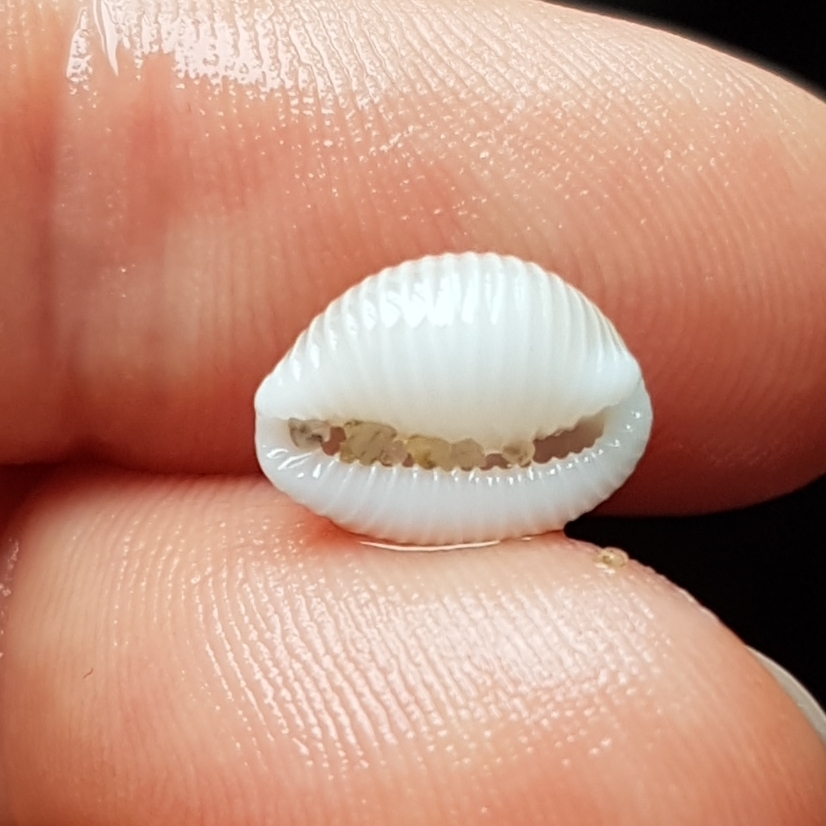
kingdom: Animalia
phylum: Mollusca
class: Gastropoda
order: Littorinimorpha
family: Triviidae
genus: Trivia
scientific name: Trivia monacha
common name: Spotted cowrie
